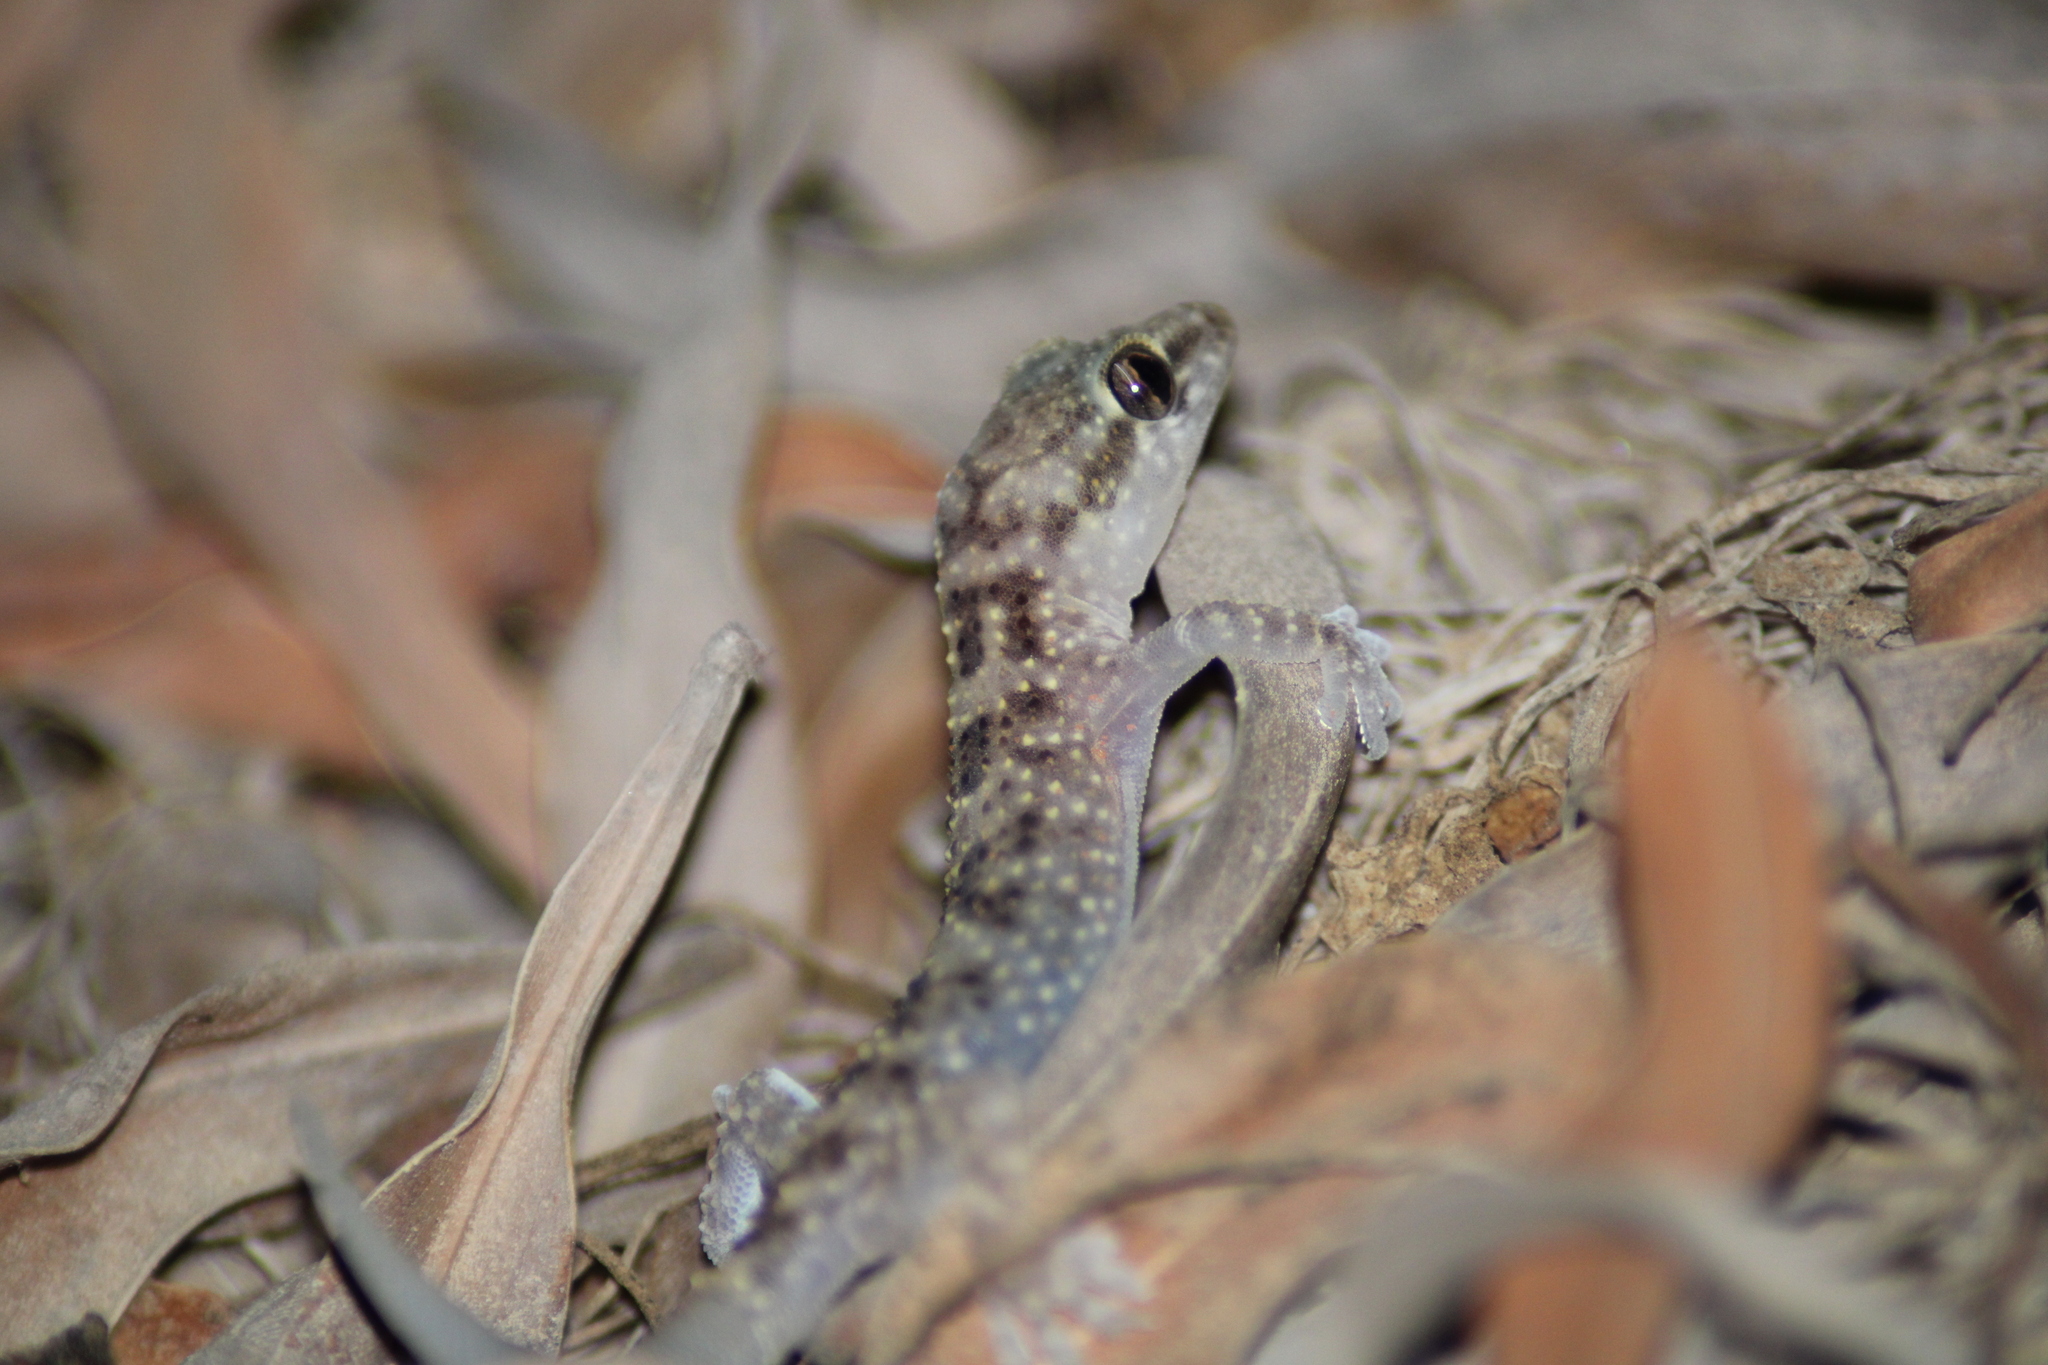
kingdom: Animalia
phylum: Chordata
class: Squamata
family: Gekkonidae
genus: Hemidactylus
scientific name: Hemidactylus turcicus
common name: Turkish gecko
